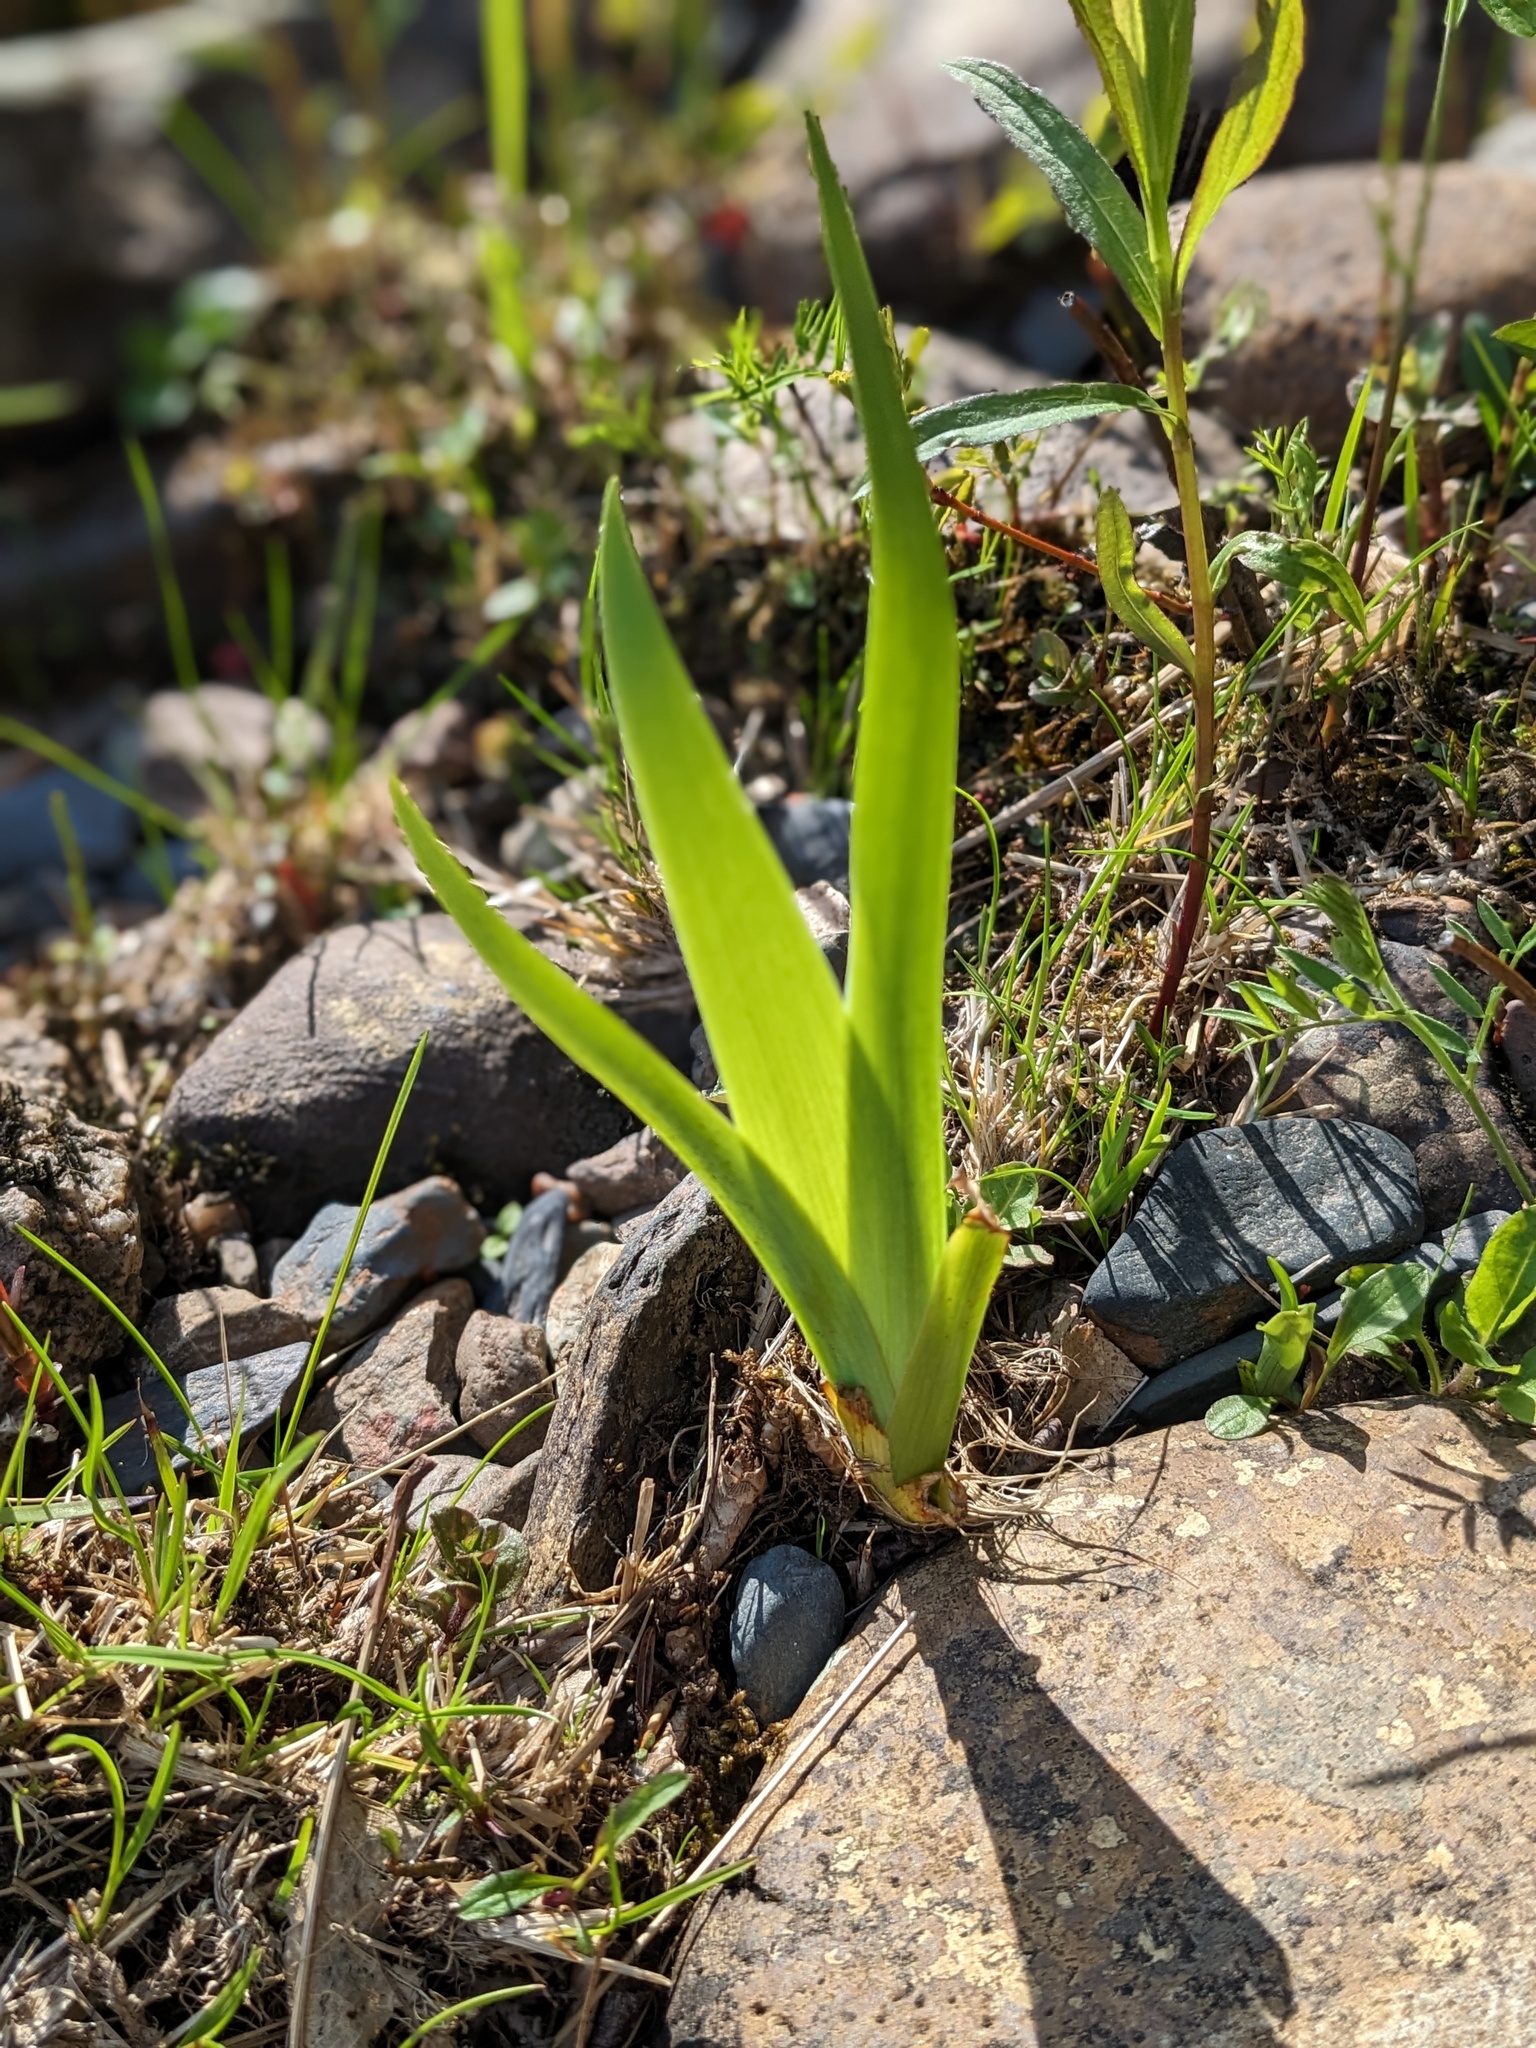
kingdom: Plantae
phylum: Tracheophyta
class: Liliopsida
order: Asparagales
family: Iridaceae
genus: Iris
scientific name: Iris versicolor
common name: Purple iris
